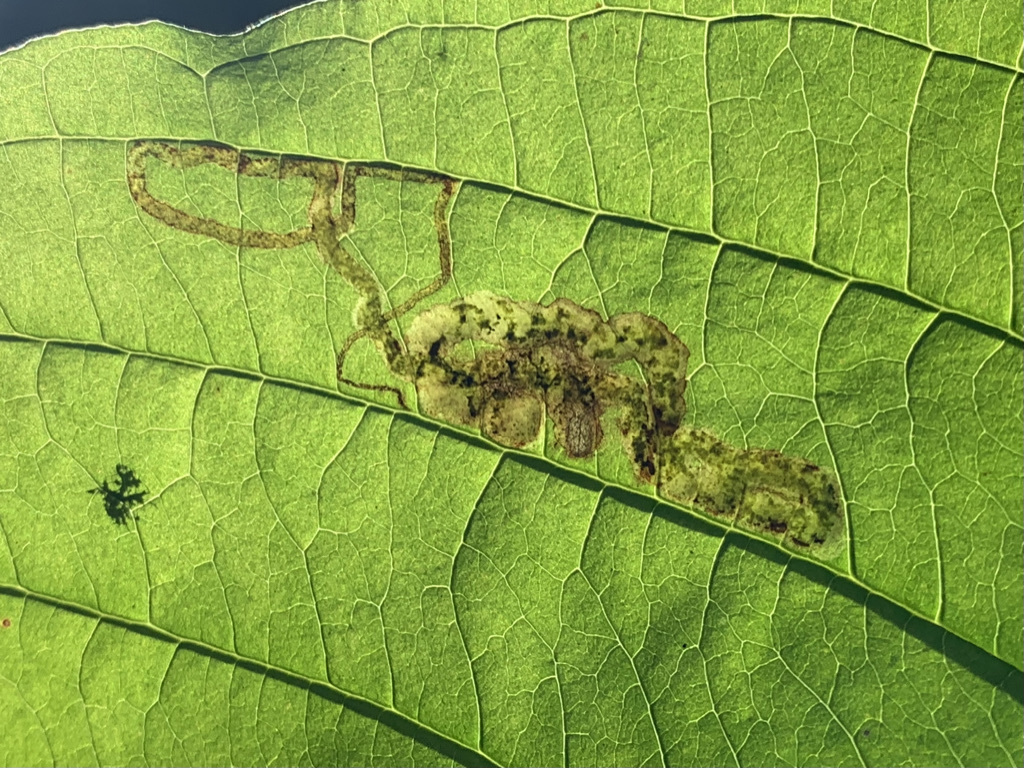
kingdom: Animalia
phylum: Arthropoda
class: Insecta
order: Diptera
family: Agromyzidae
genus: Phytomyza
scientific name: Phytomyza agromyzina
